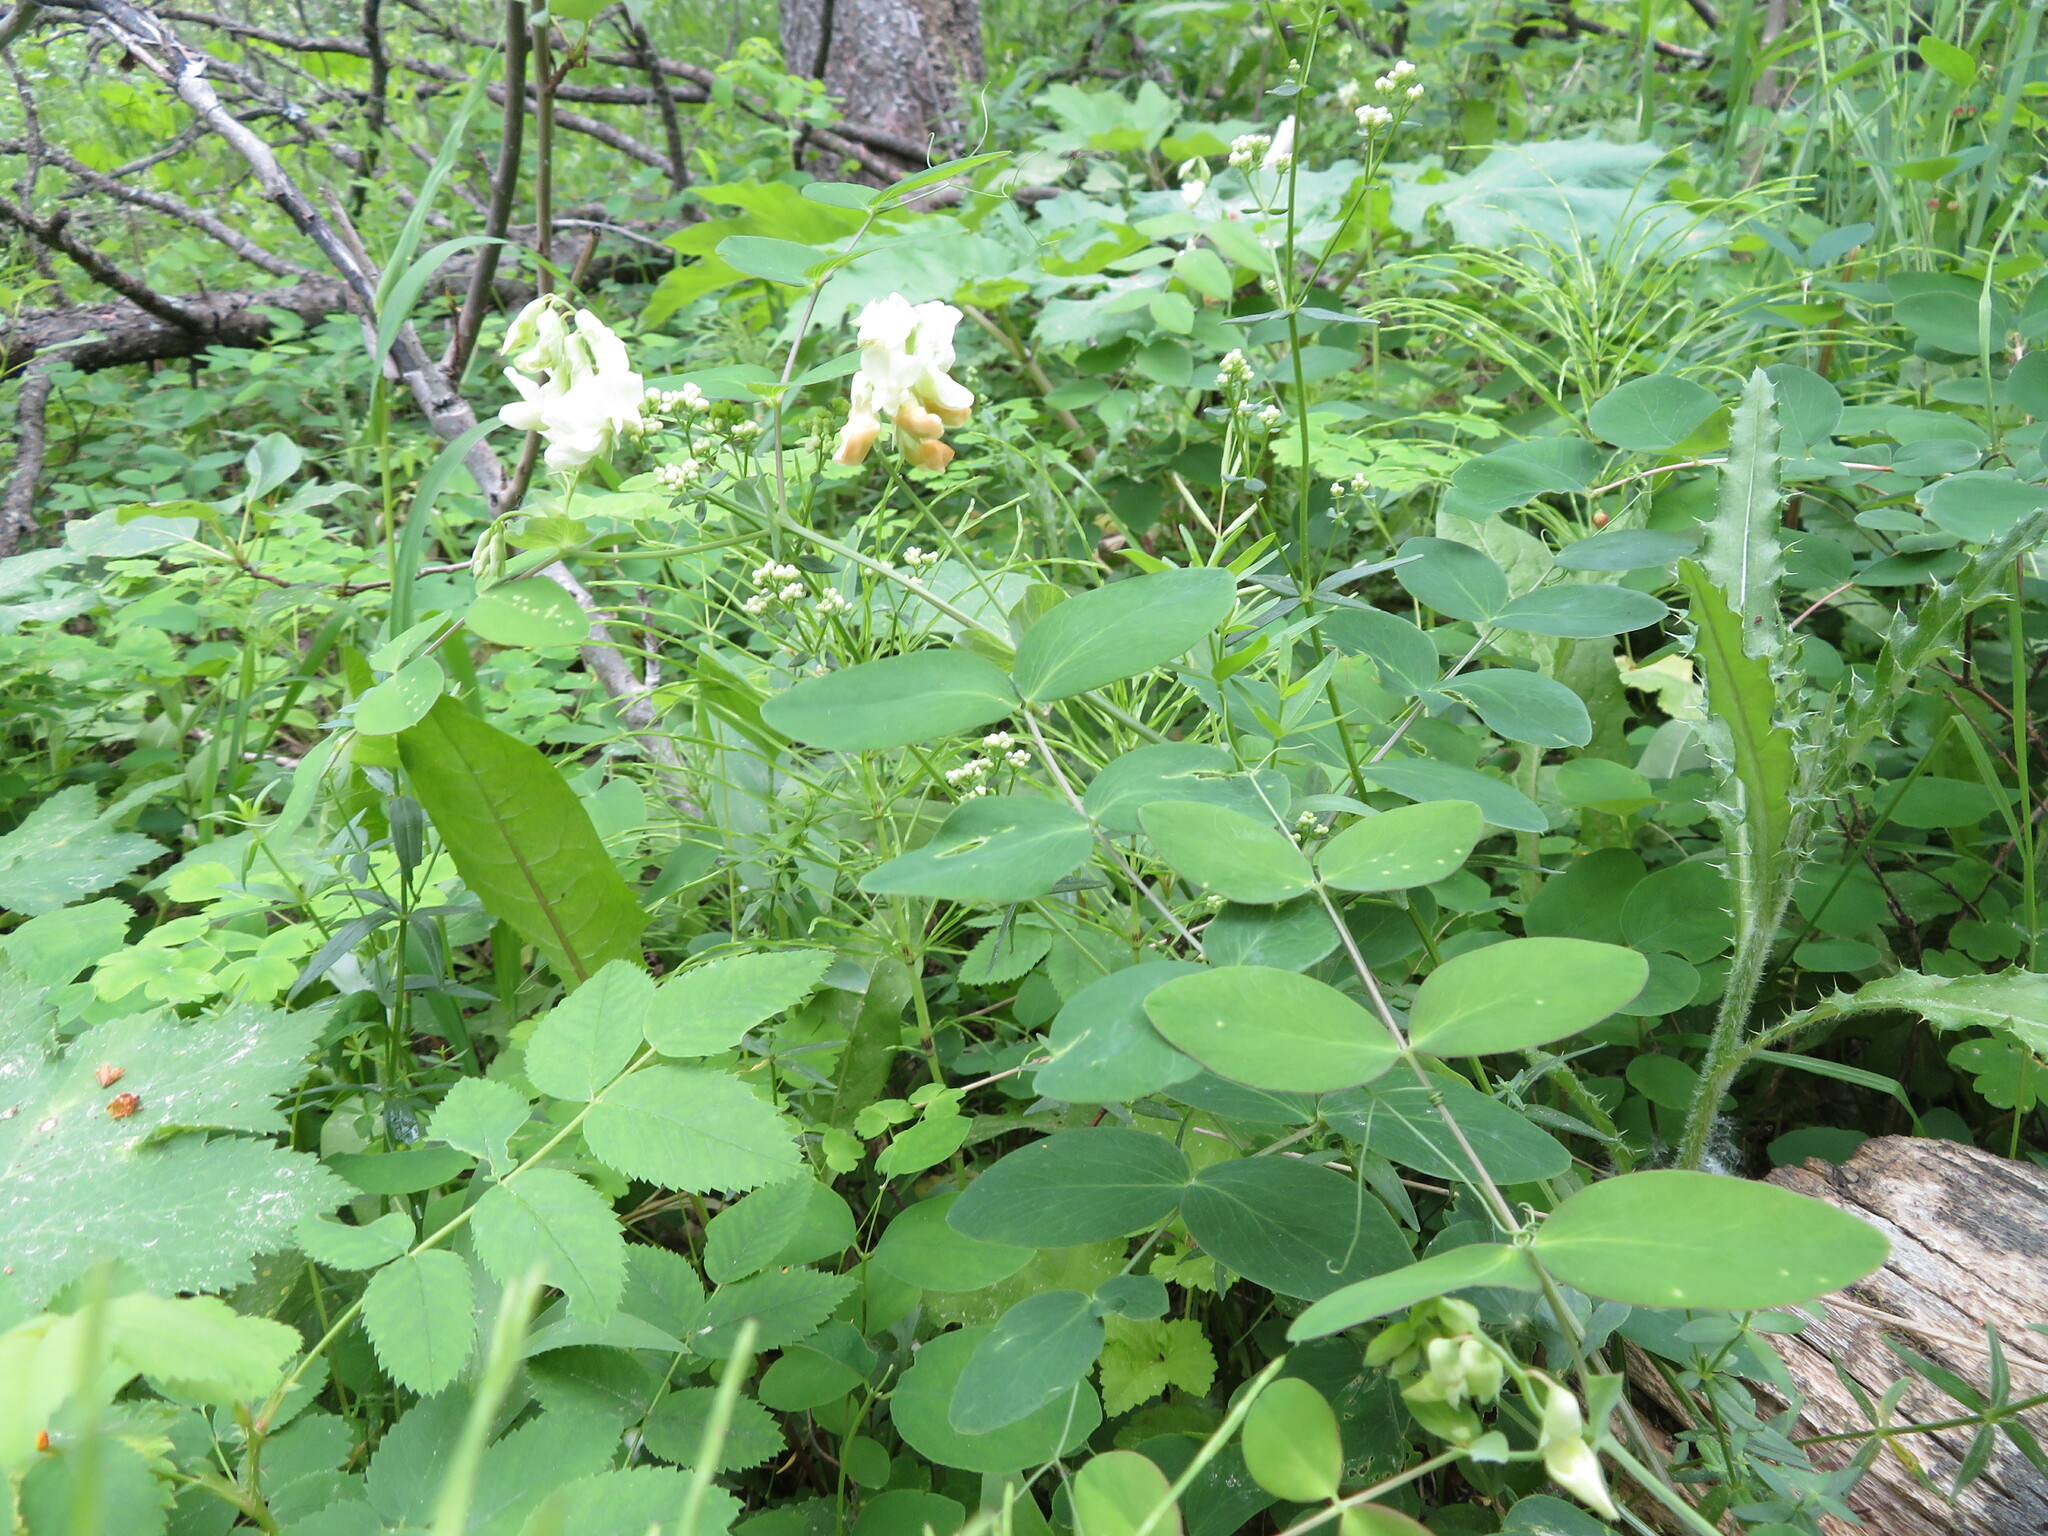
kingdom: Plantae
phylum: Tracheophyta
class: Magnoliopsida
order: Fabales
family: Fabaceae
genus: Lathyrus
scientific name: Lathyrus ochroleucus
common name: Pale vetchling
